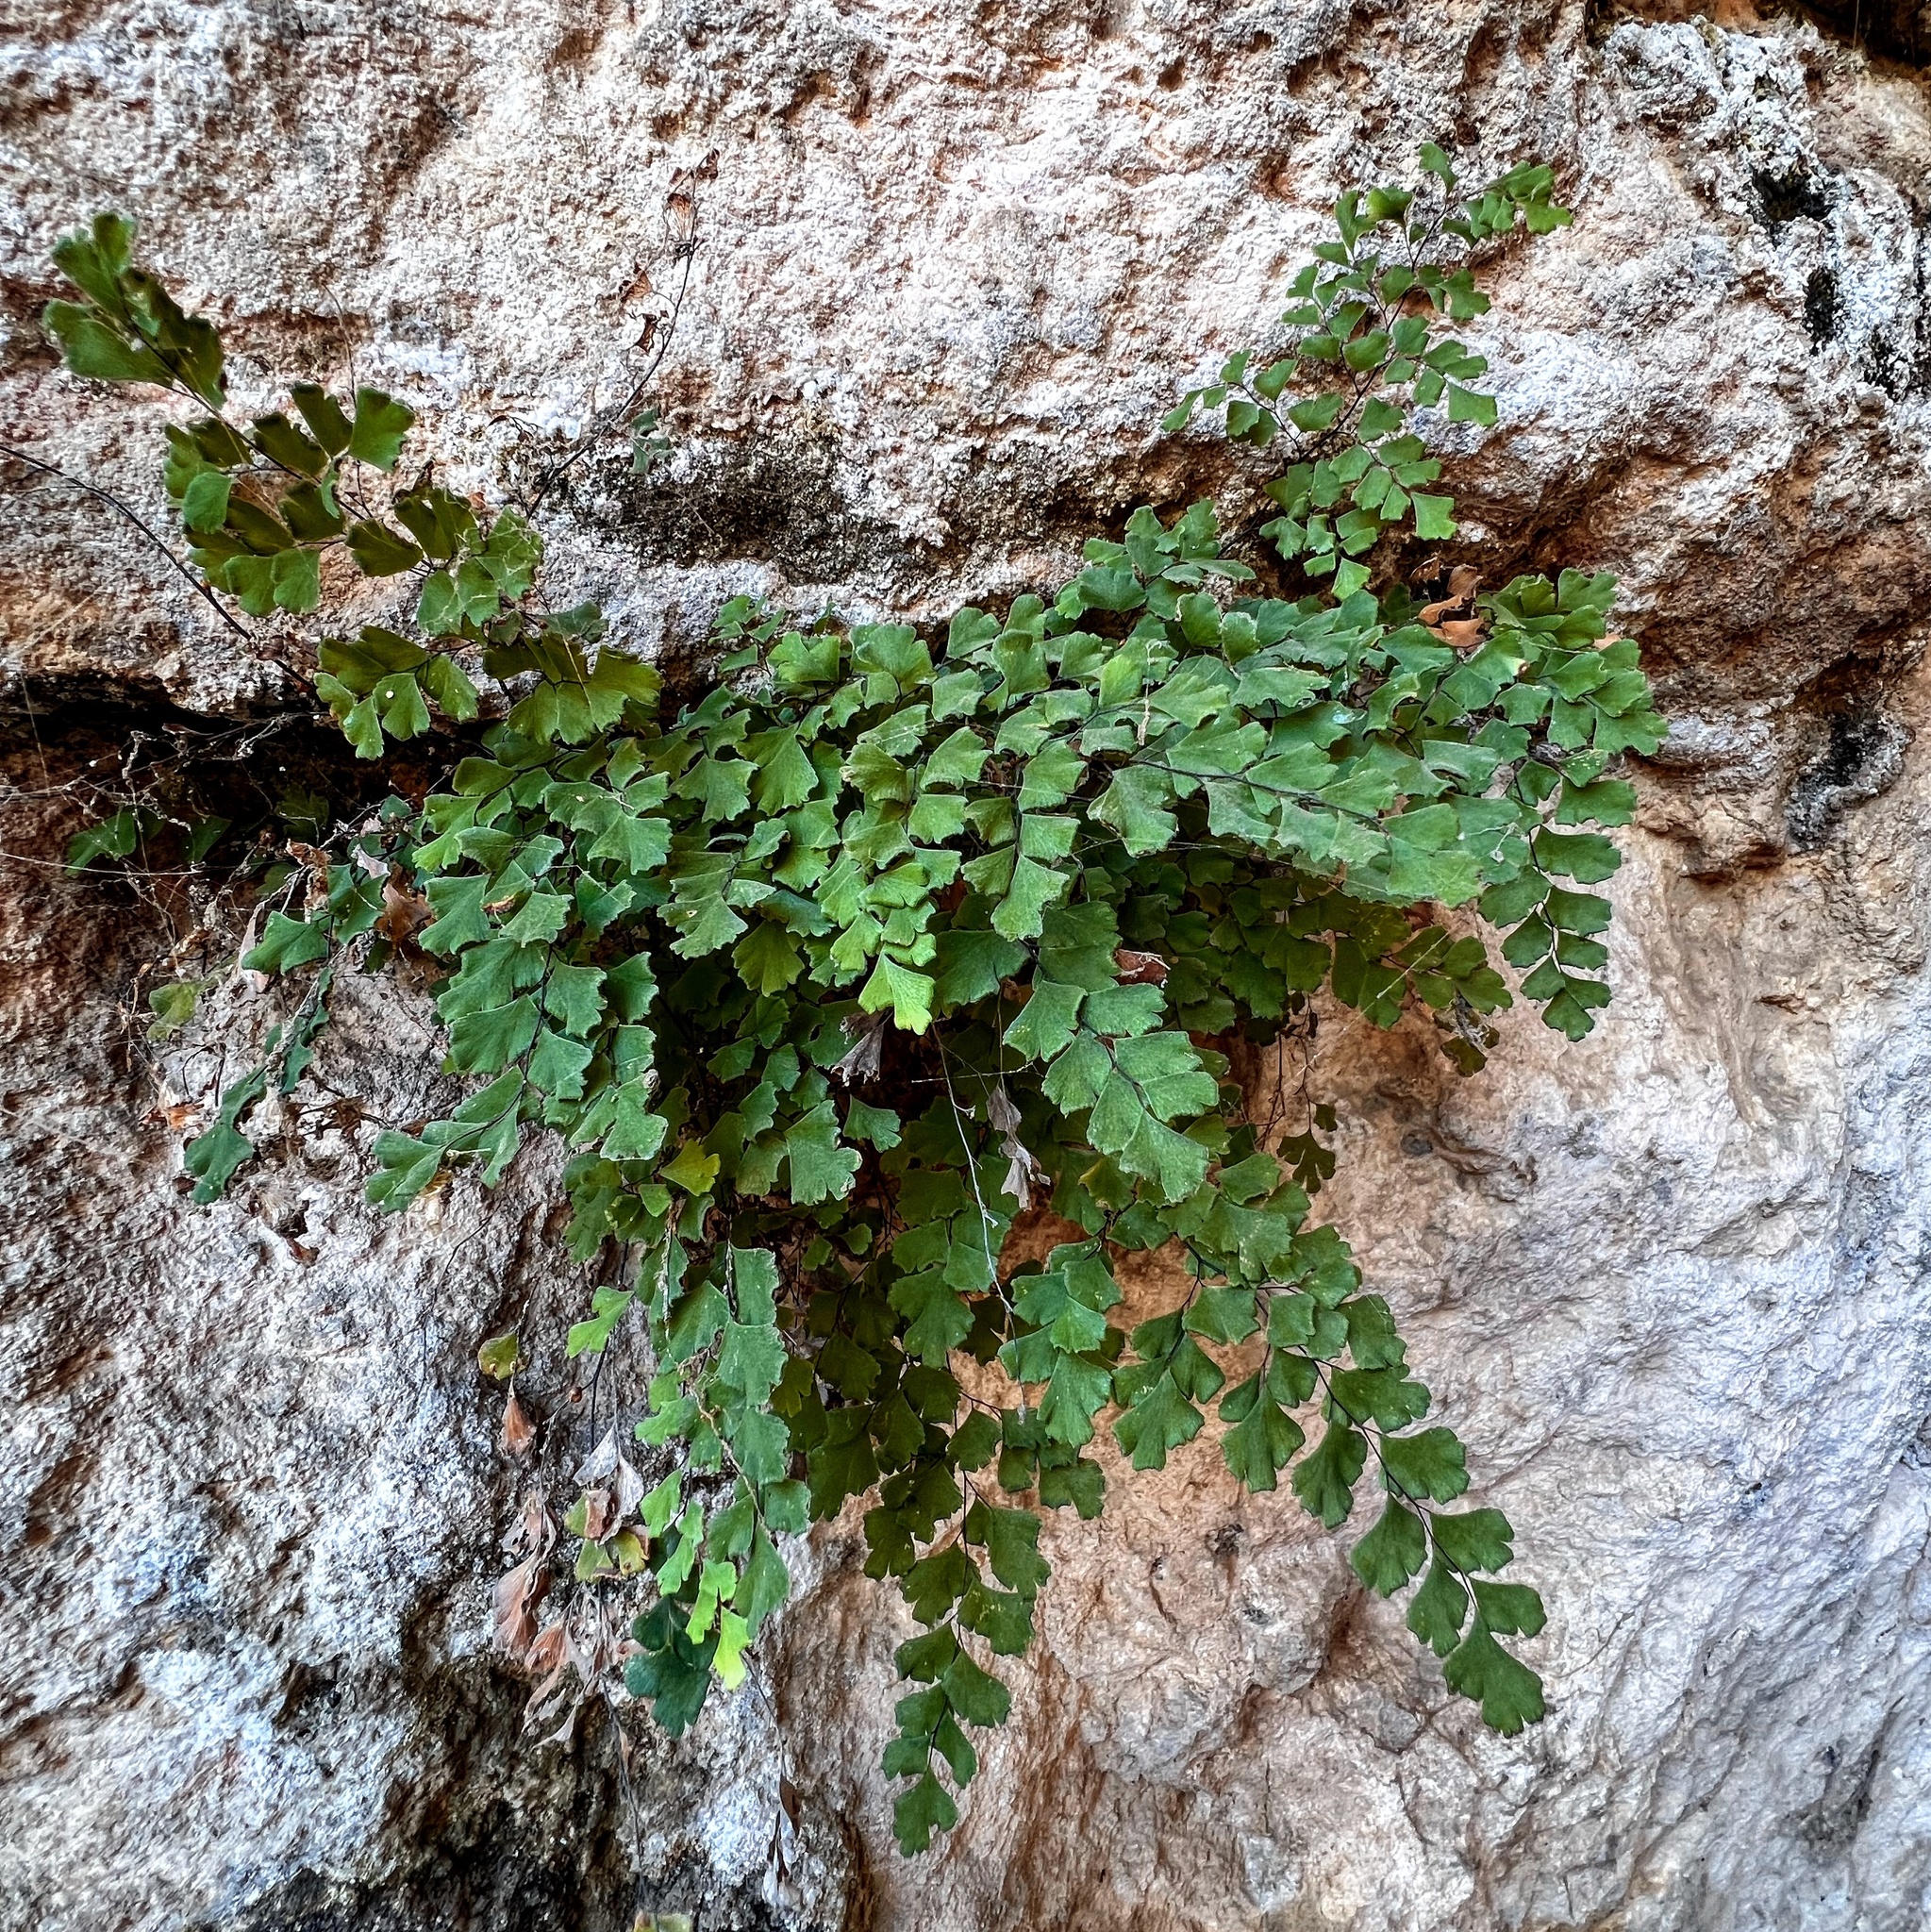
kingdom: Plantae
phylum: Tracheophyta
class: Polypodiopsida
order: Polypodiales
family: Pteridaceae
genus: Adiantum
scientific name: Adiantum capillus-veneris
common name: Maidenhair fern
